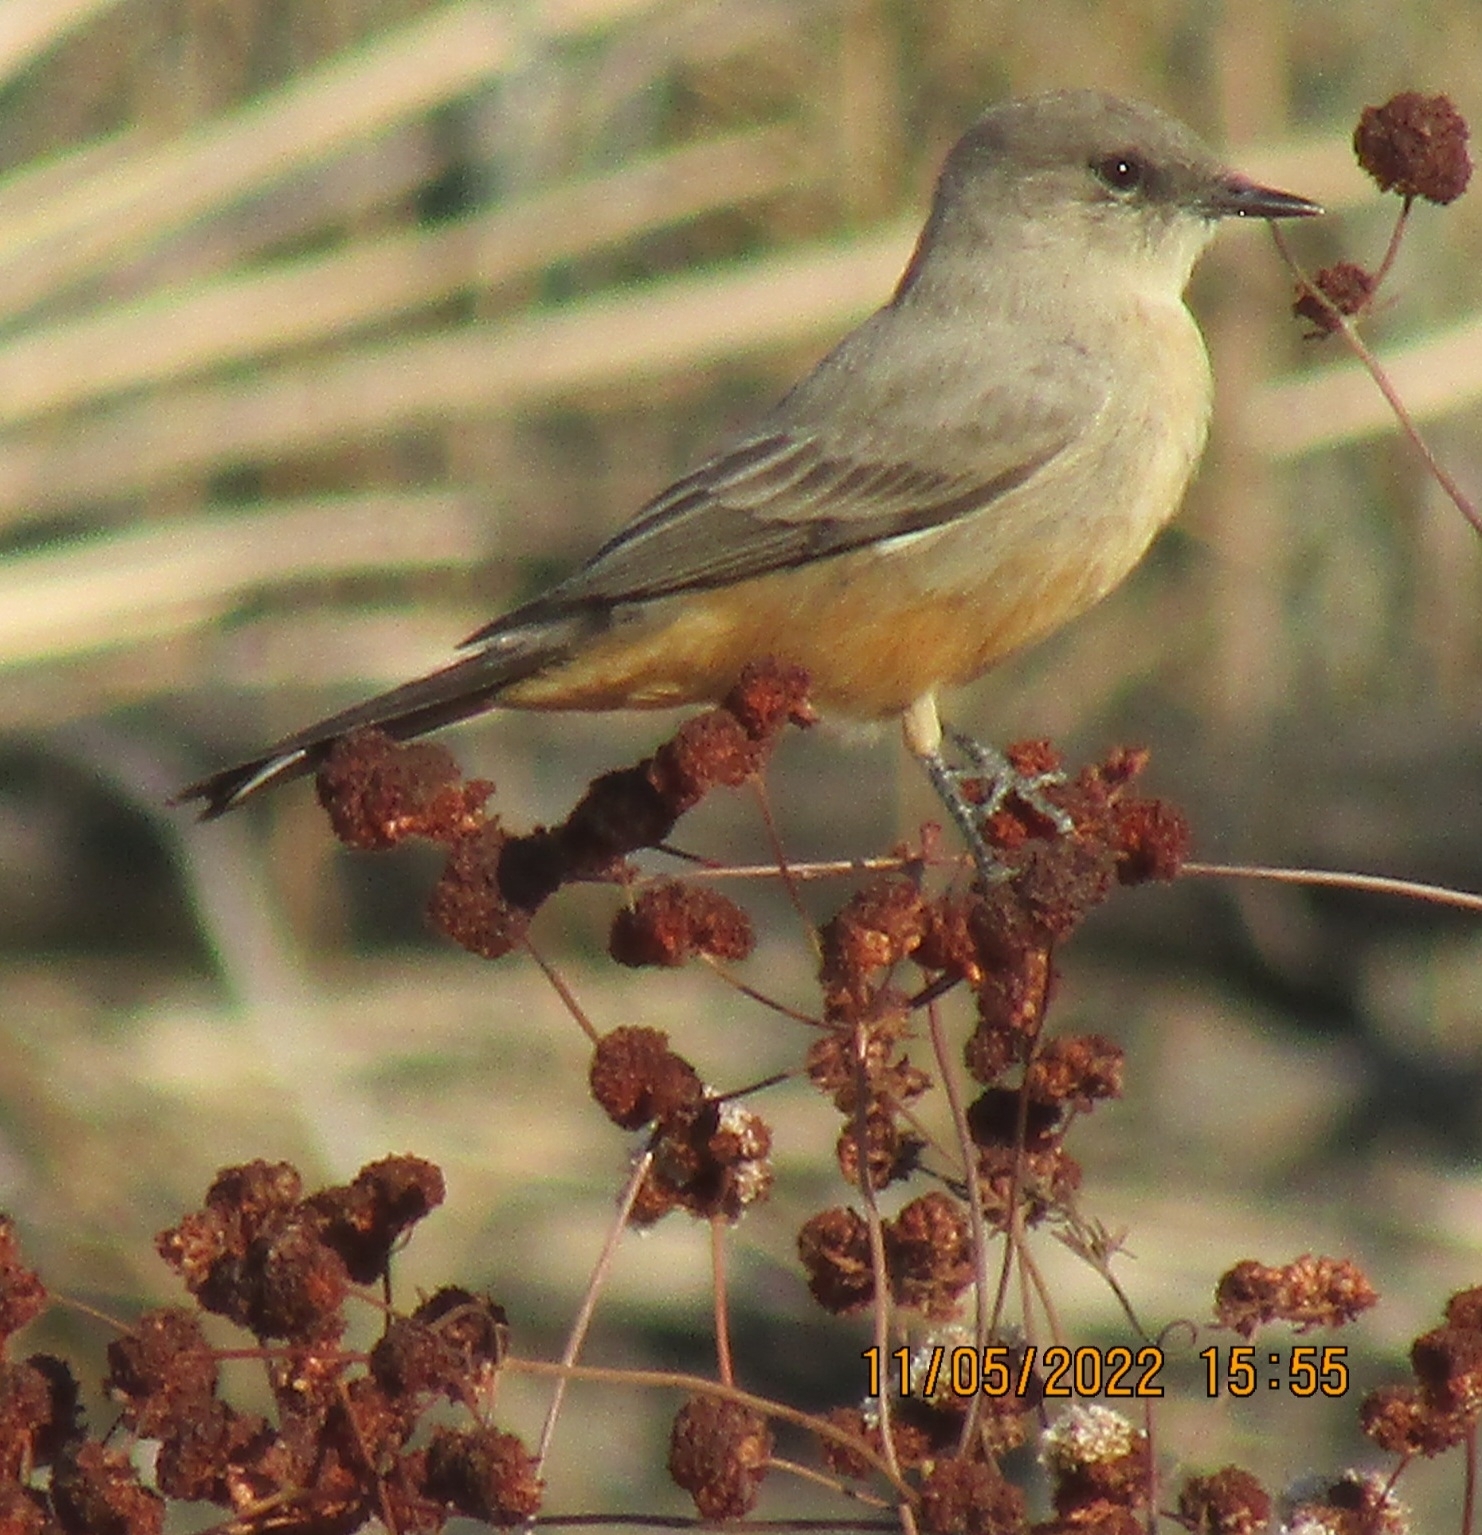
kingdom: Animalia
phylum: Chordata
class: Aves
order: Passeriformes
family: Tyrannidae
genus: Sayornis
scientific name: Sayornis saya
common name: Say's phoebe
